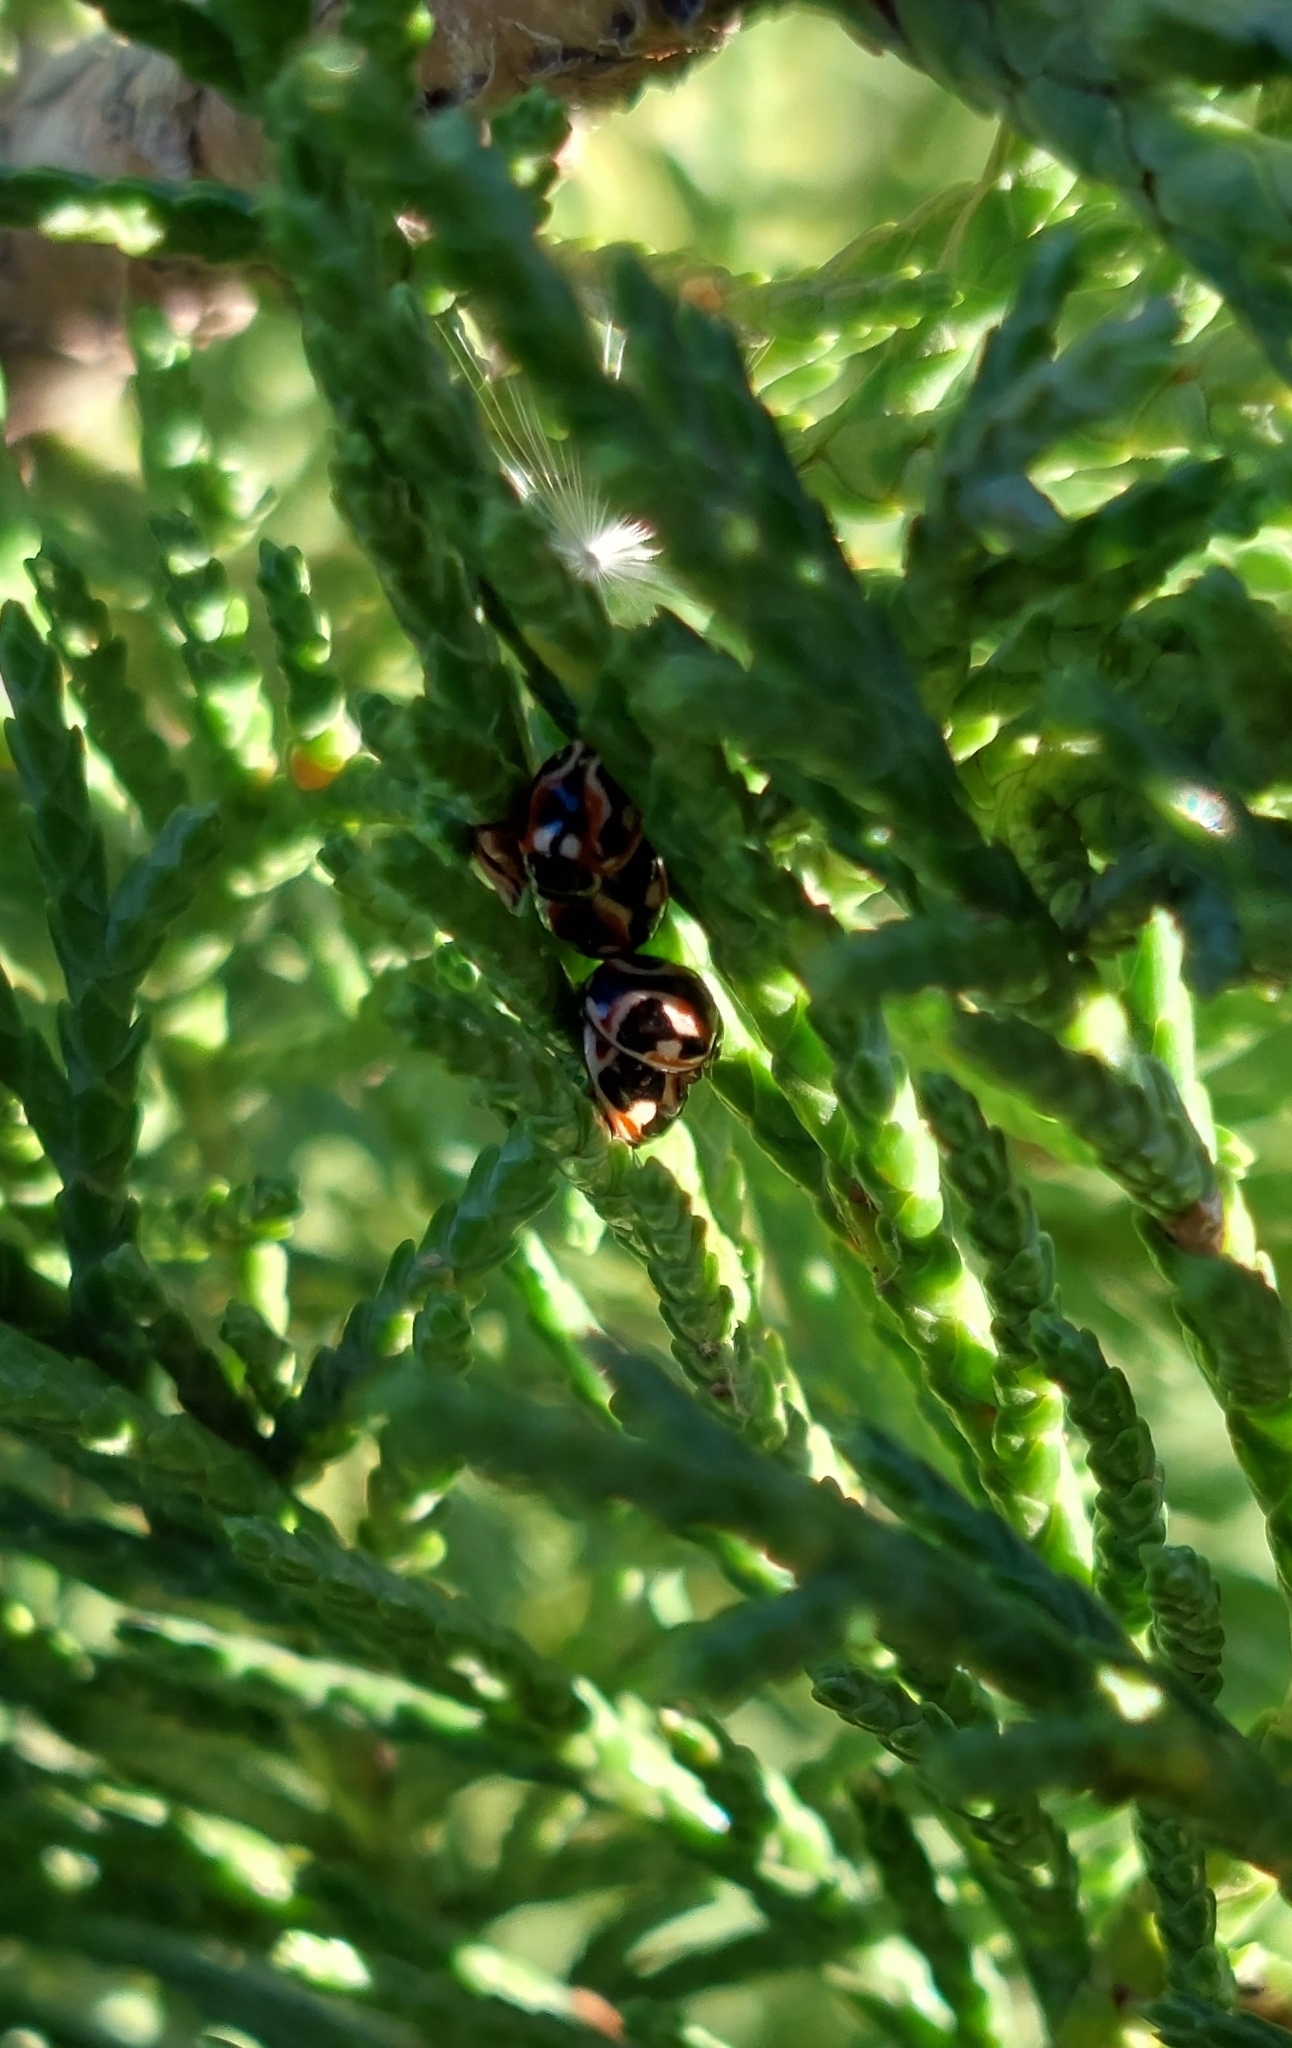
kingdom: Animalia
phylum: Arthropoda
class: Insecta
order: Coleoptera
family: Coccinellidae
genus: Cycloneda
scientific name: Cycloneda ancoralis
